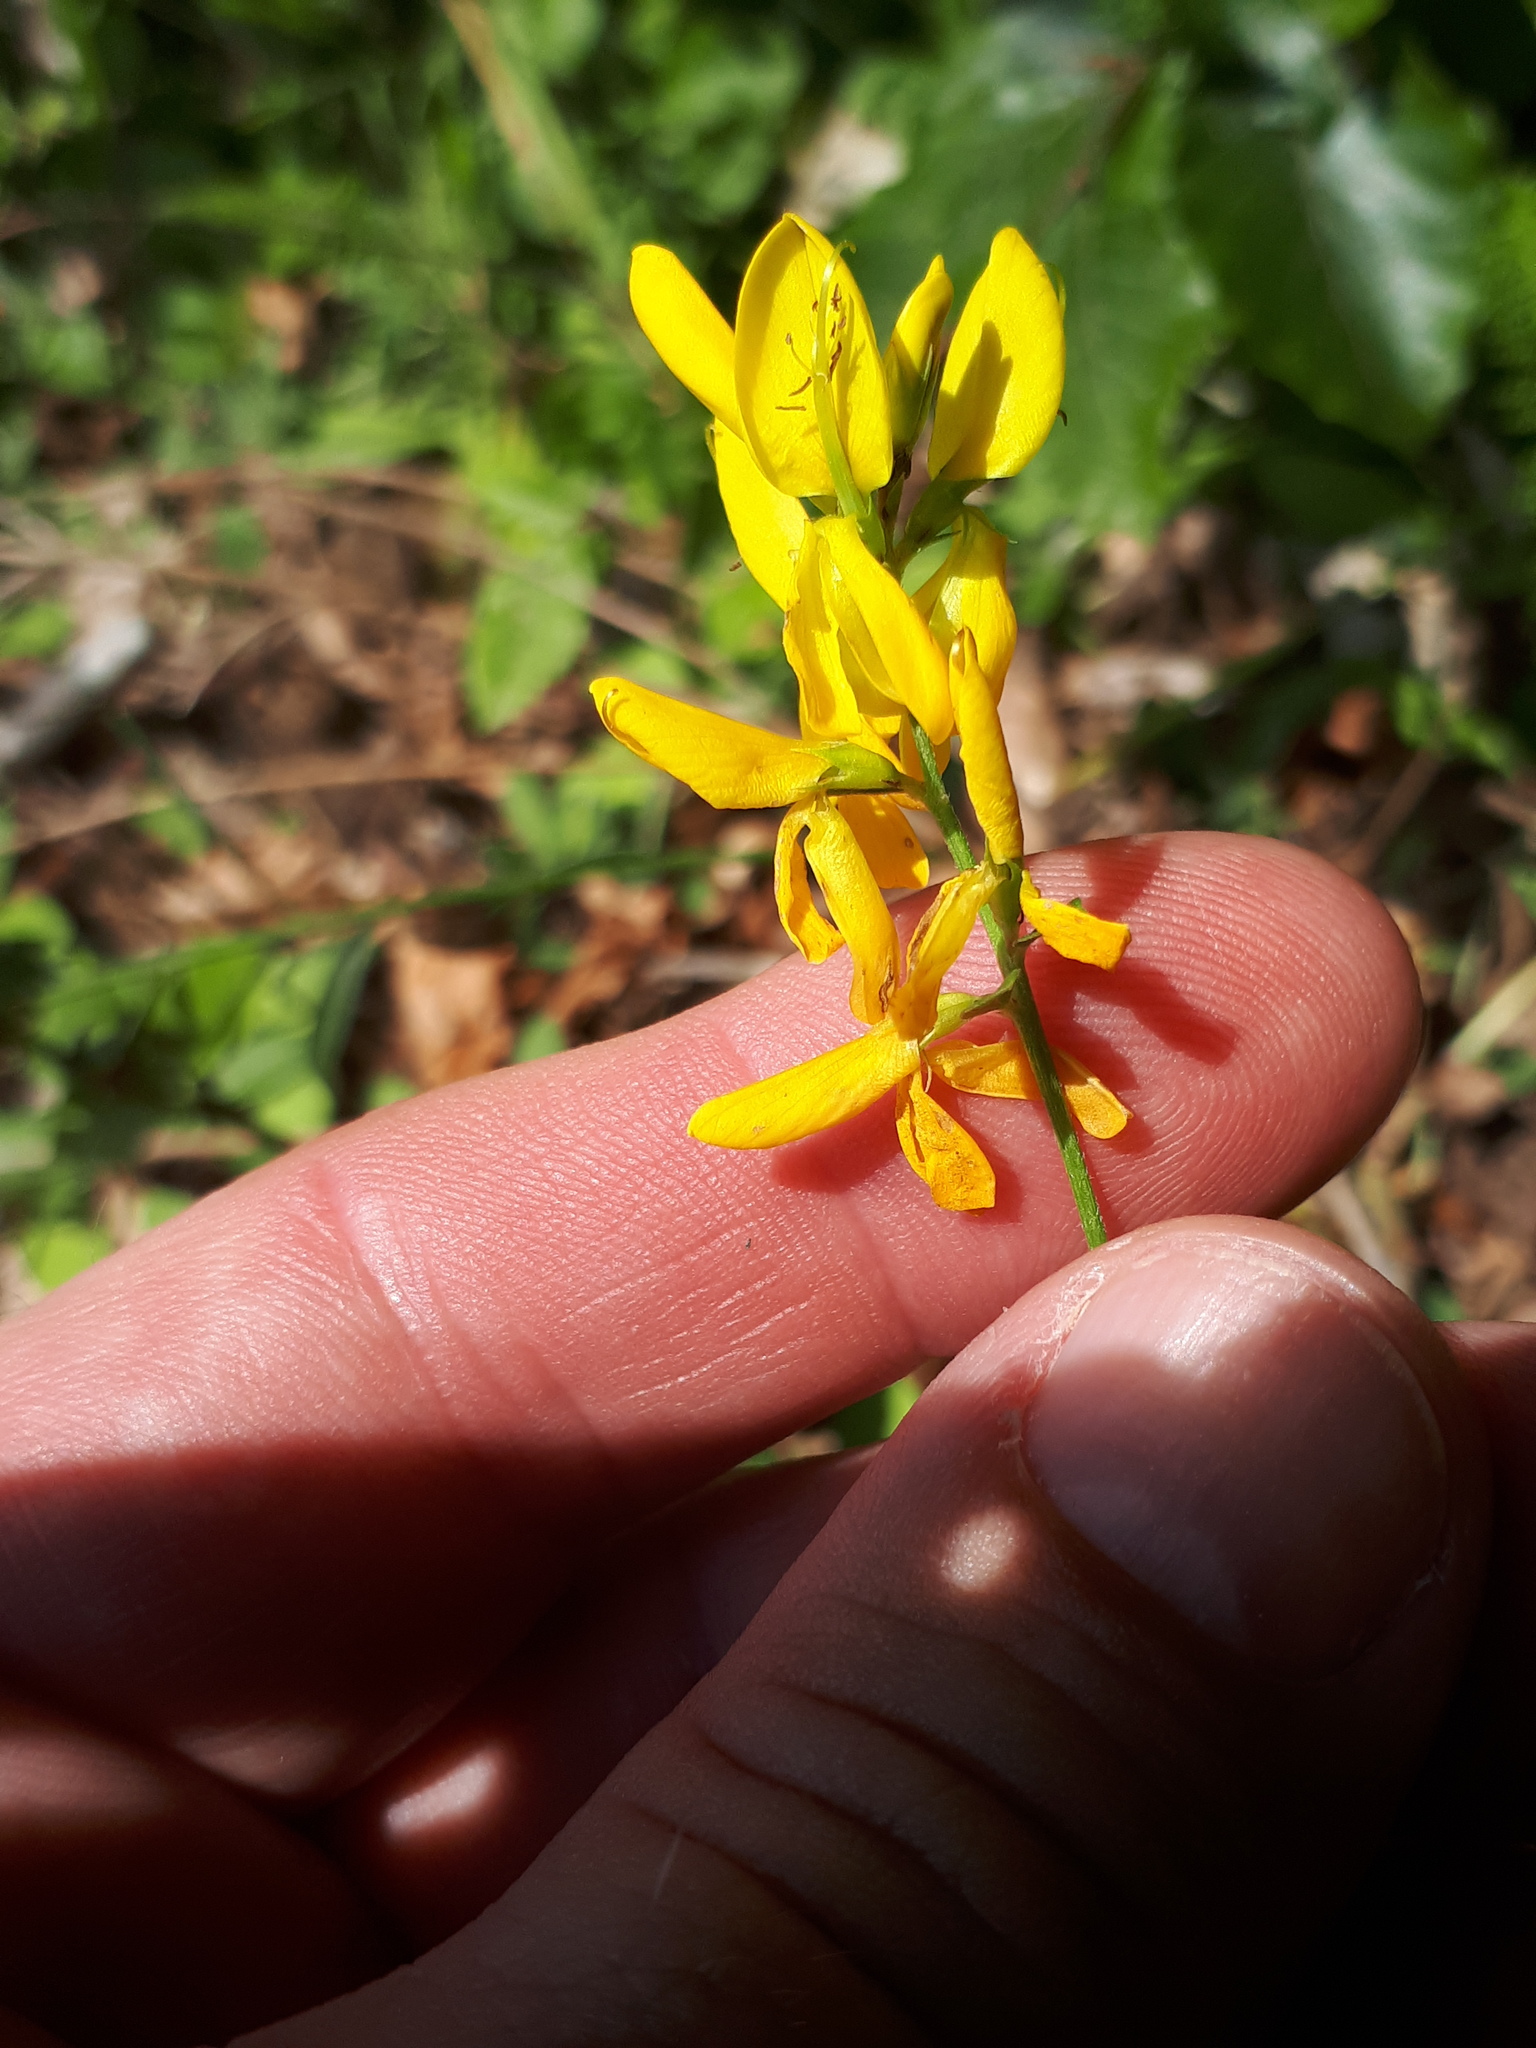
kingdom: Plantae
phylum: Tracheophyta
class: Magnoliopsida
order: Fabales
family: Fabaceae
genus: Genista
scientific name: Genista germanica
